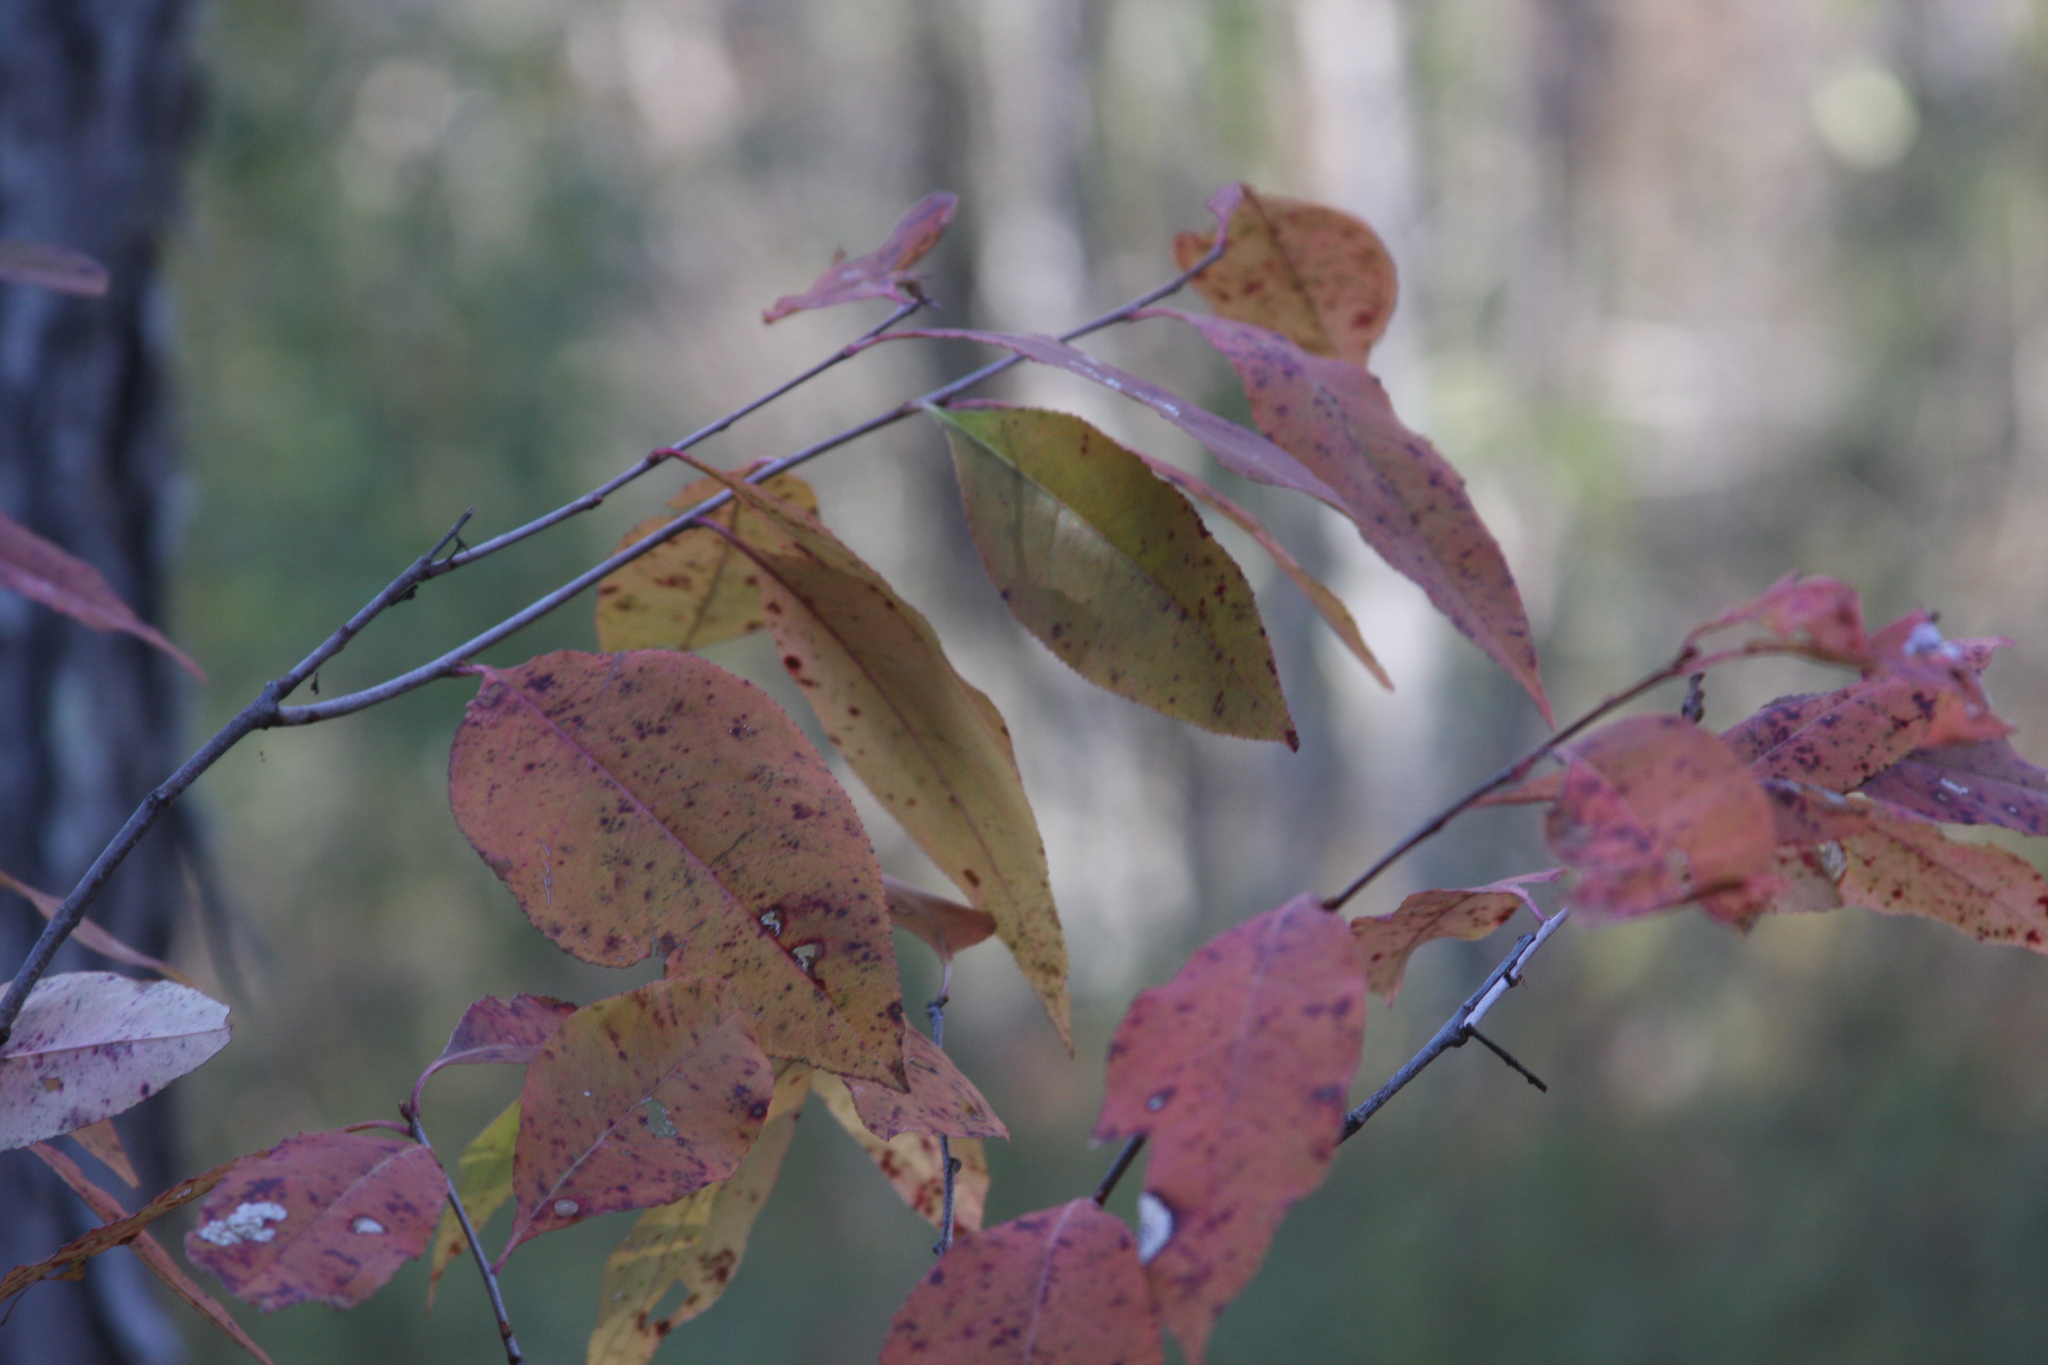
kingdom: Plantae
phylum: Tracheophyta
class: Magnoliopsida
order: Rosales
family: Rosaceae
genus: Prunus
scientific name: Prunus serotina
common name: Black cherry
